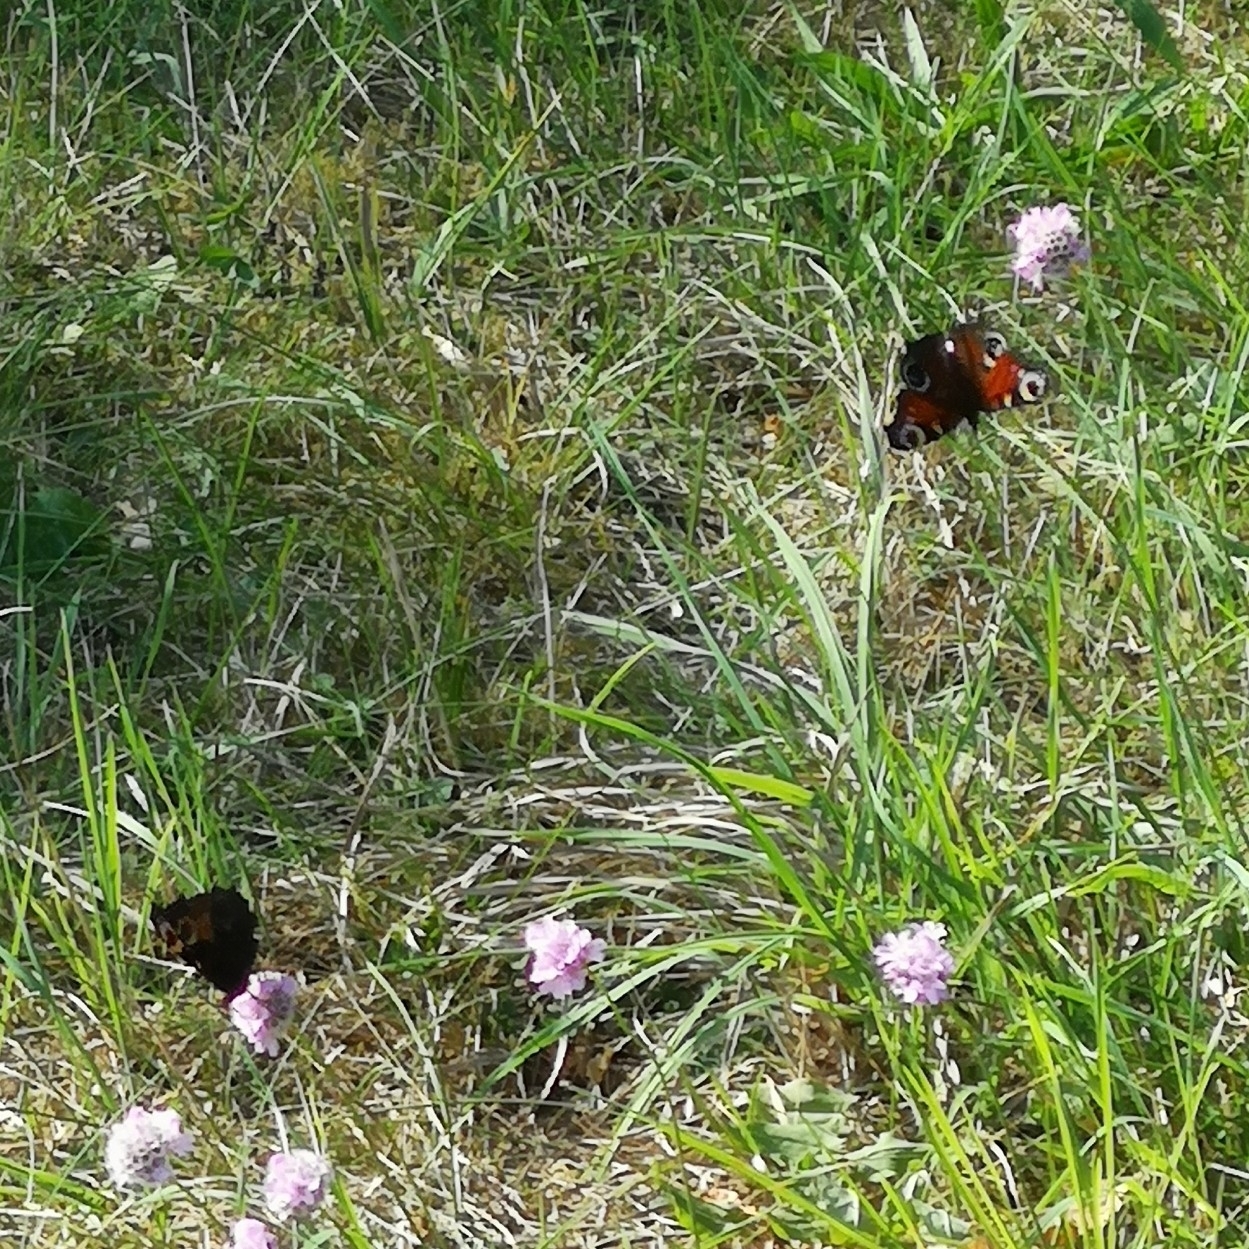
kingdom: Animalia
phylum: Arthropoda
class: Insecta
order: Lepidoptera
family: Nymphalidae
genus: Aglais
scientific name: Aglais io
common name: Peacock
